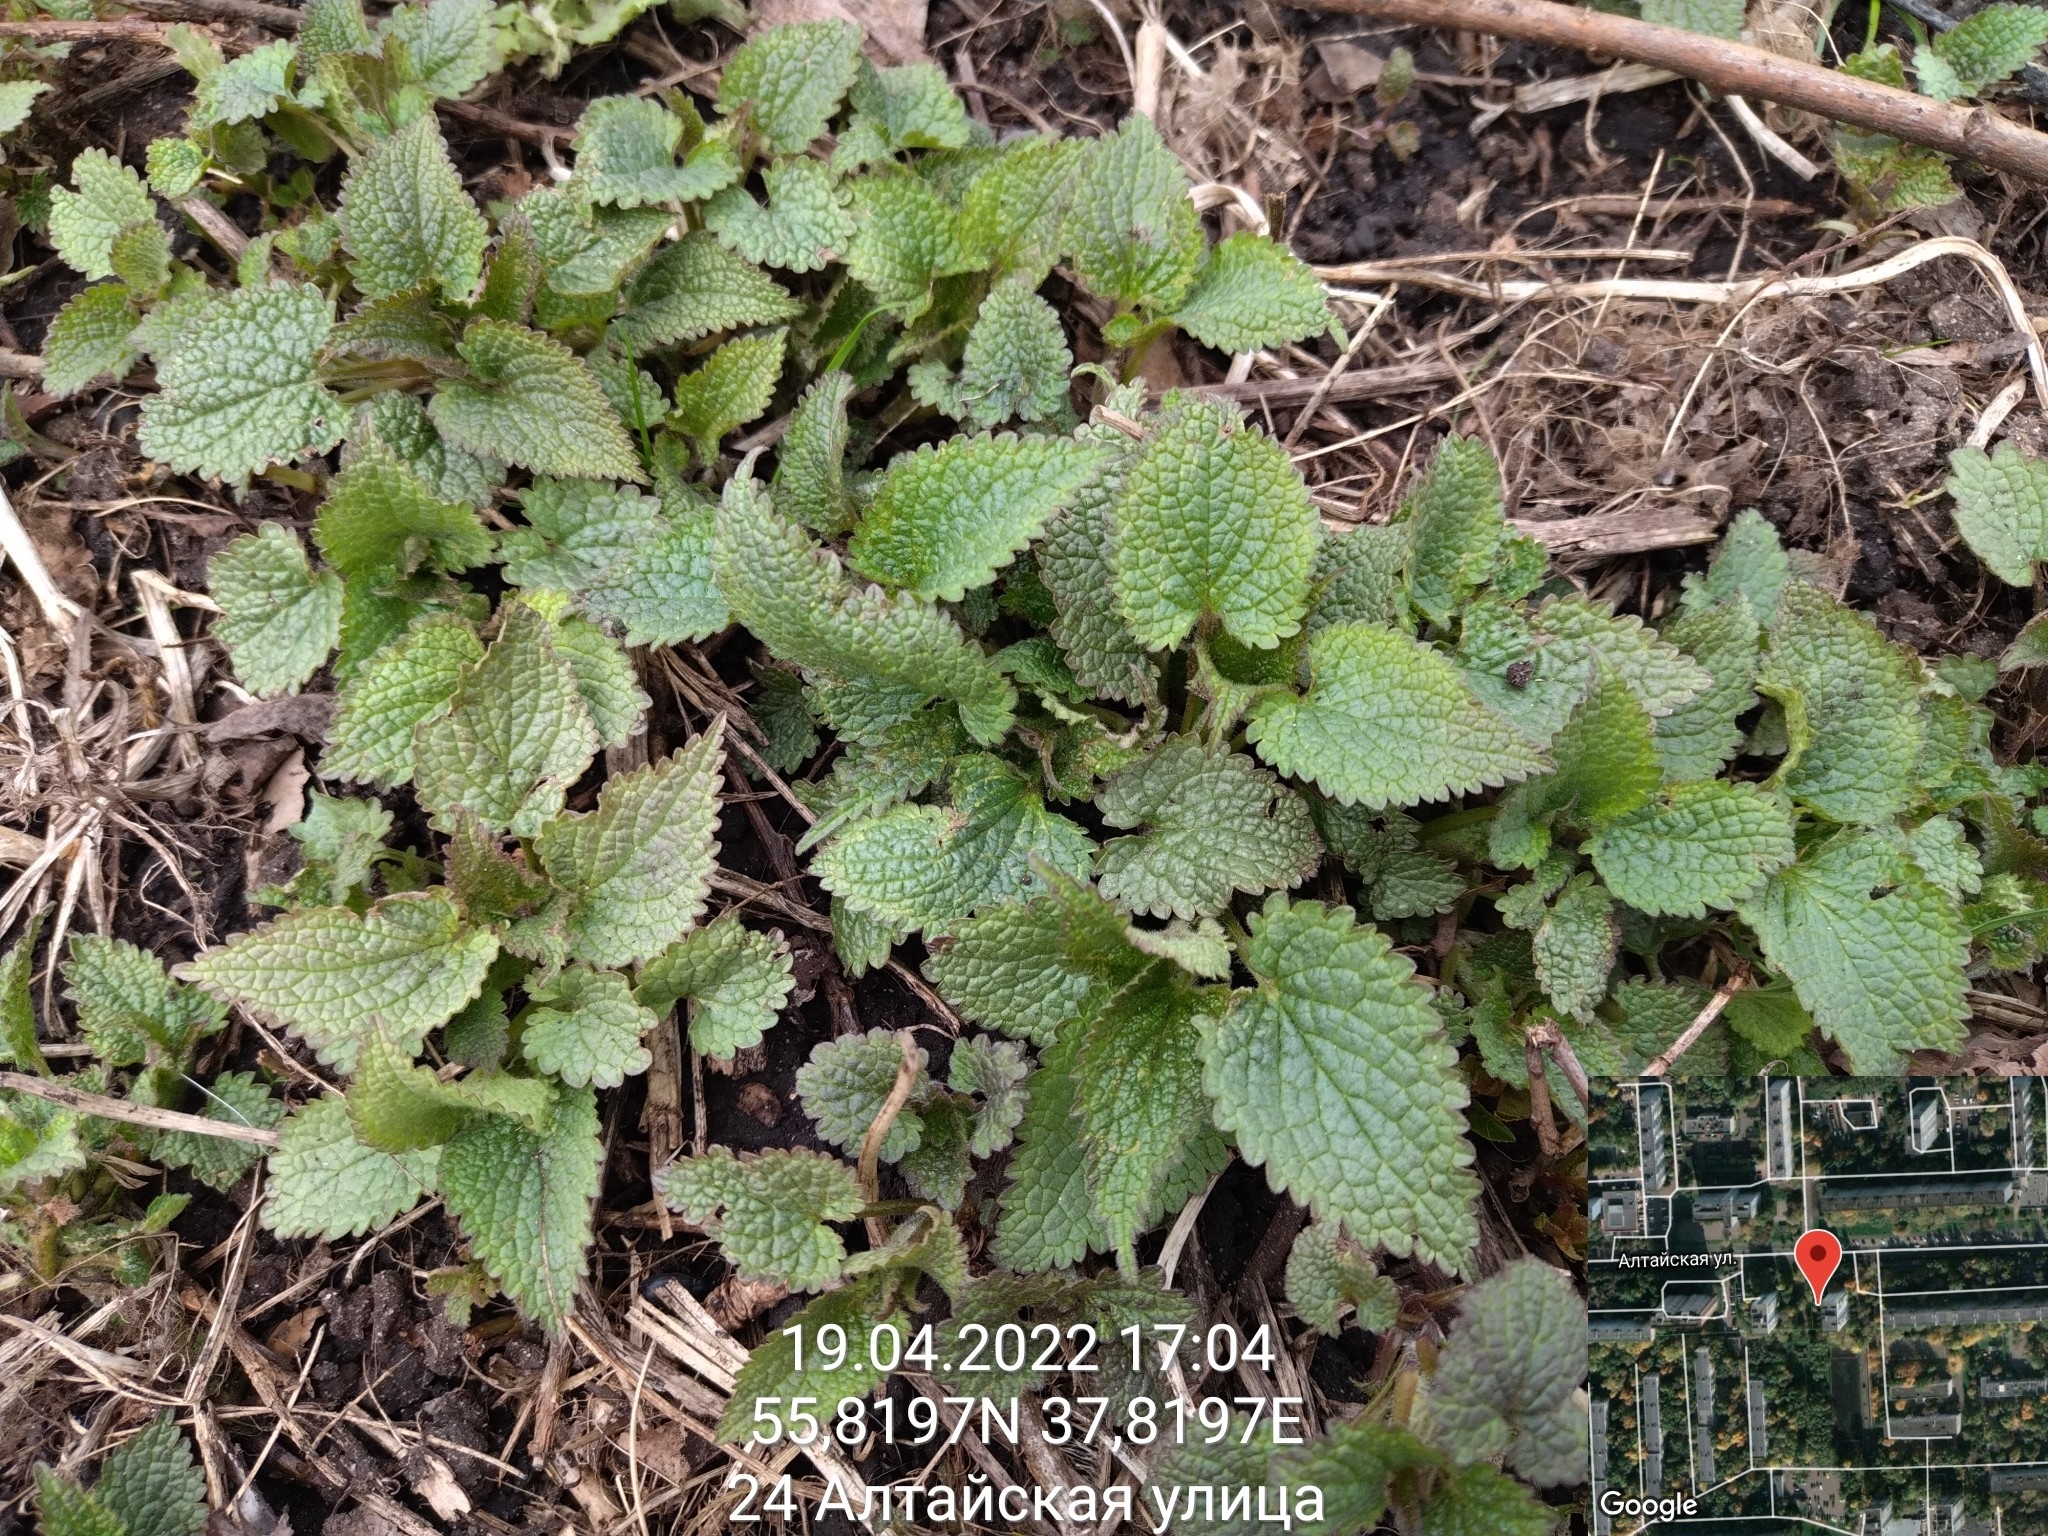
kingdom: Plantae
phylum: Tracheophyta
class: Magnoliopsida
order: Lamiales
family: Lamiaceae
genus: Lamium
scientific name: Lamium album
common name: White dead-nettle
